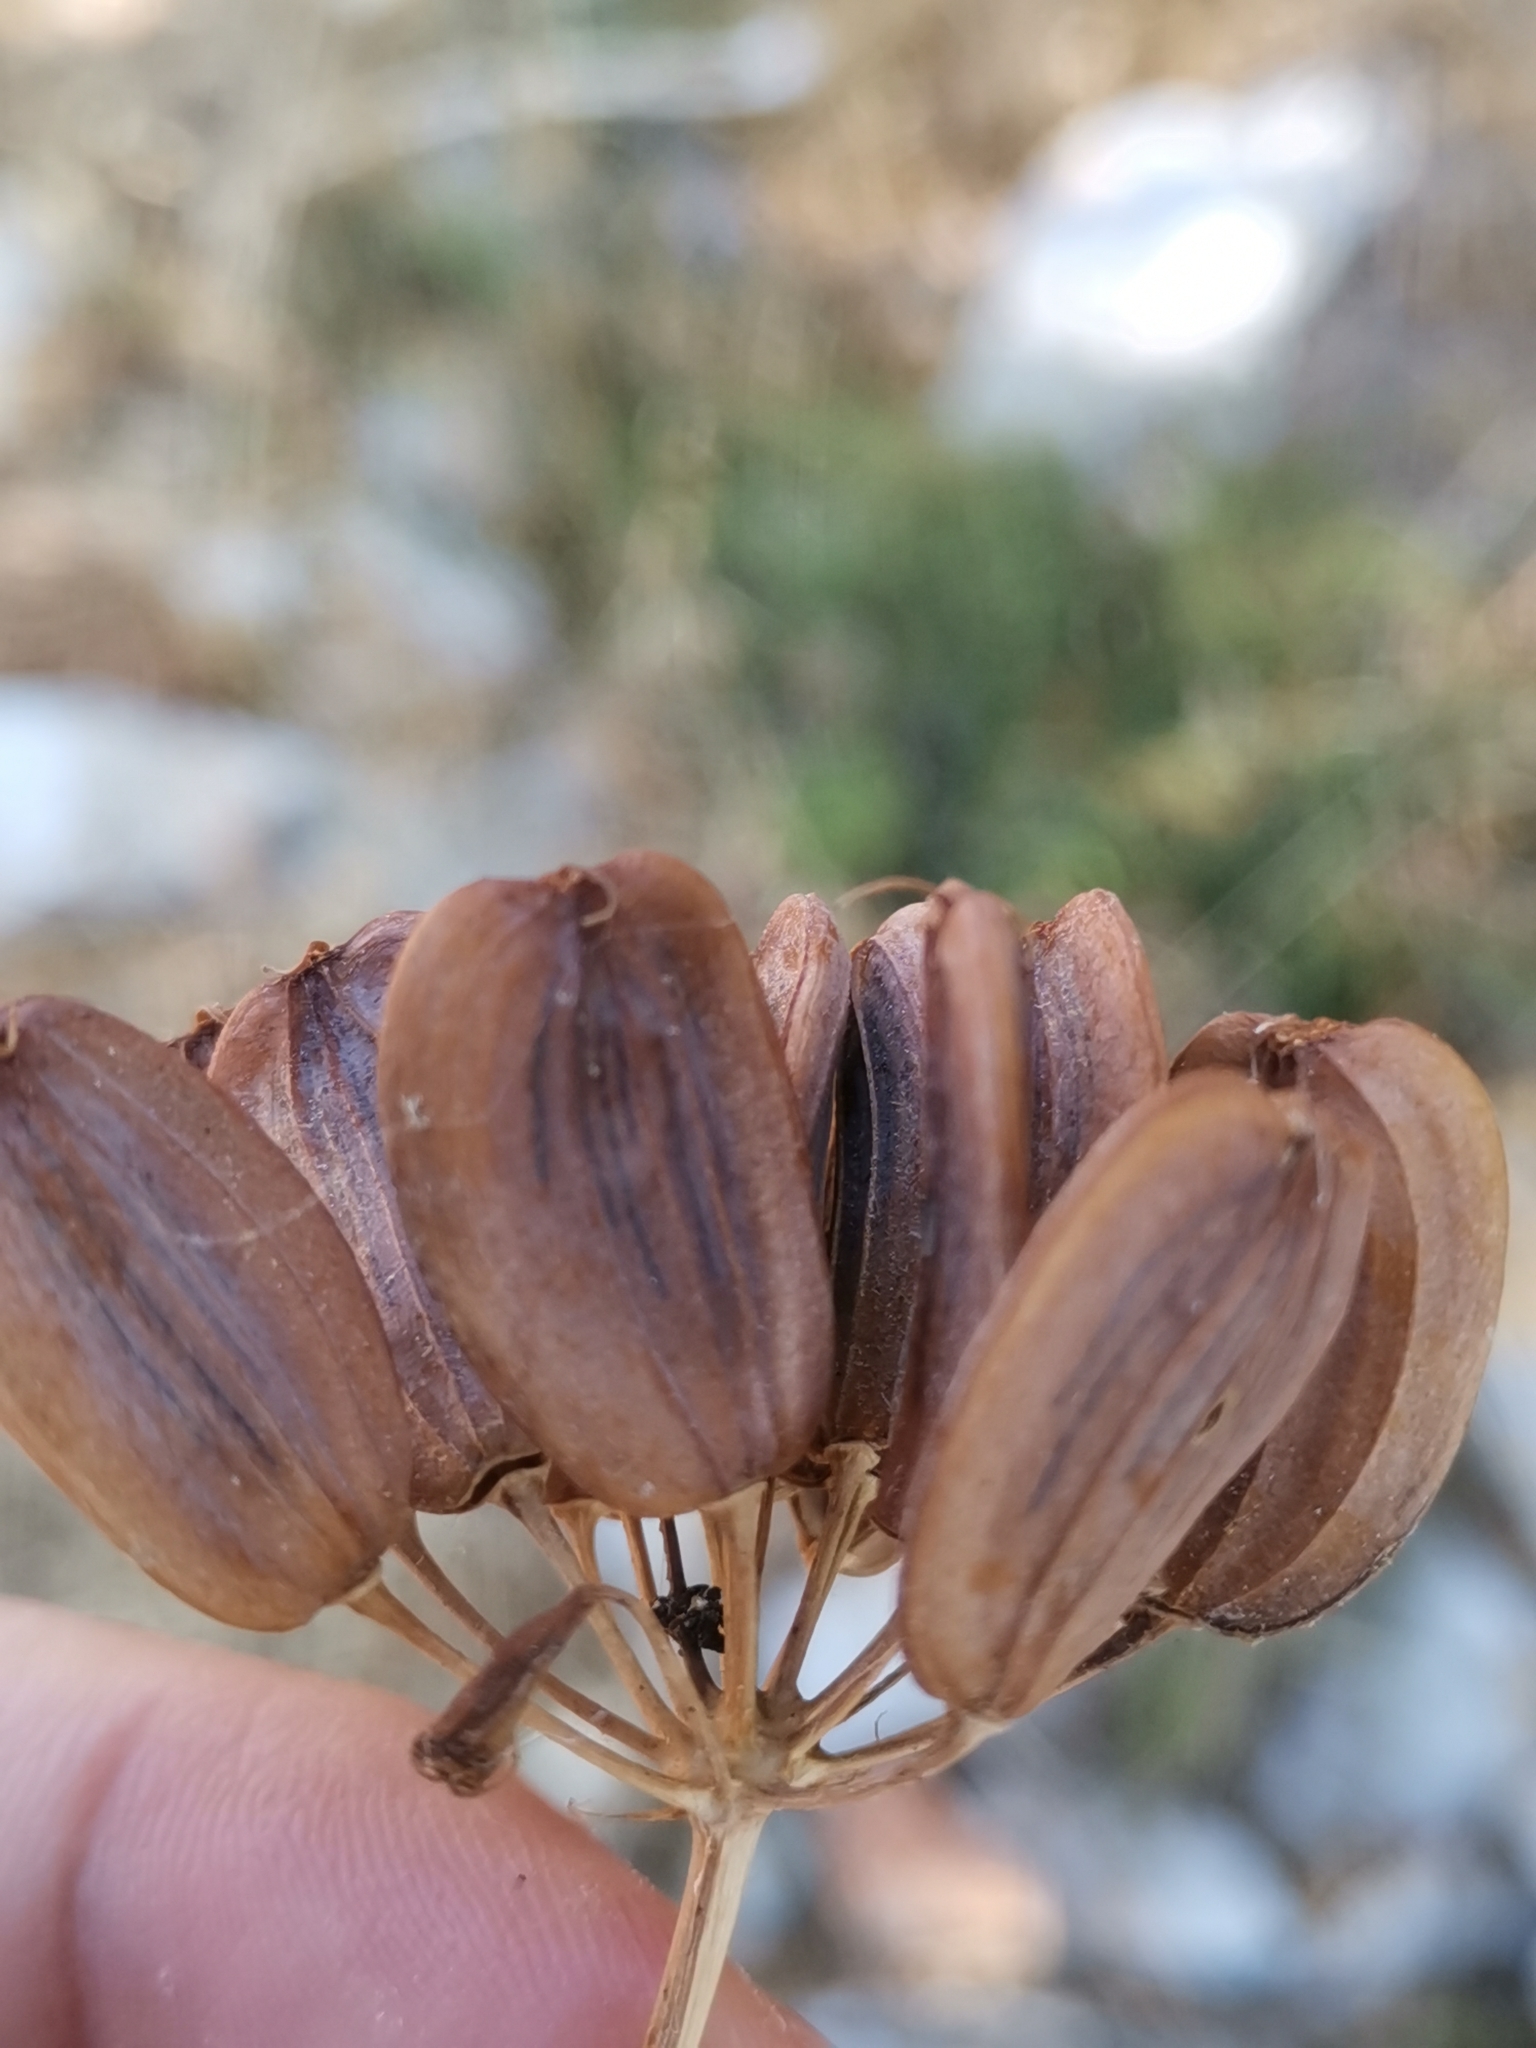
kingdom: Plantae
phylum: Tracheophyta
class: Magnoliopsida
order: Apiales
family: Apiaceae
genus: Ferula
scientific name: Ferula communis
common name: Giant fennel
